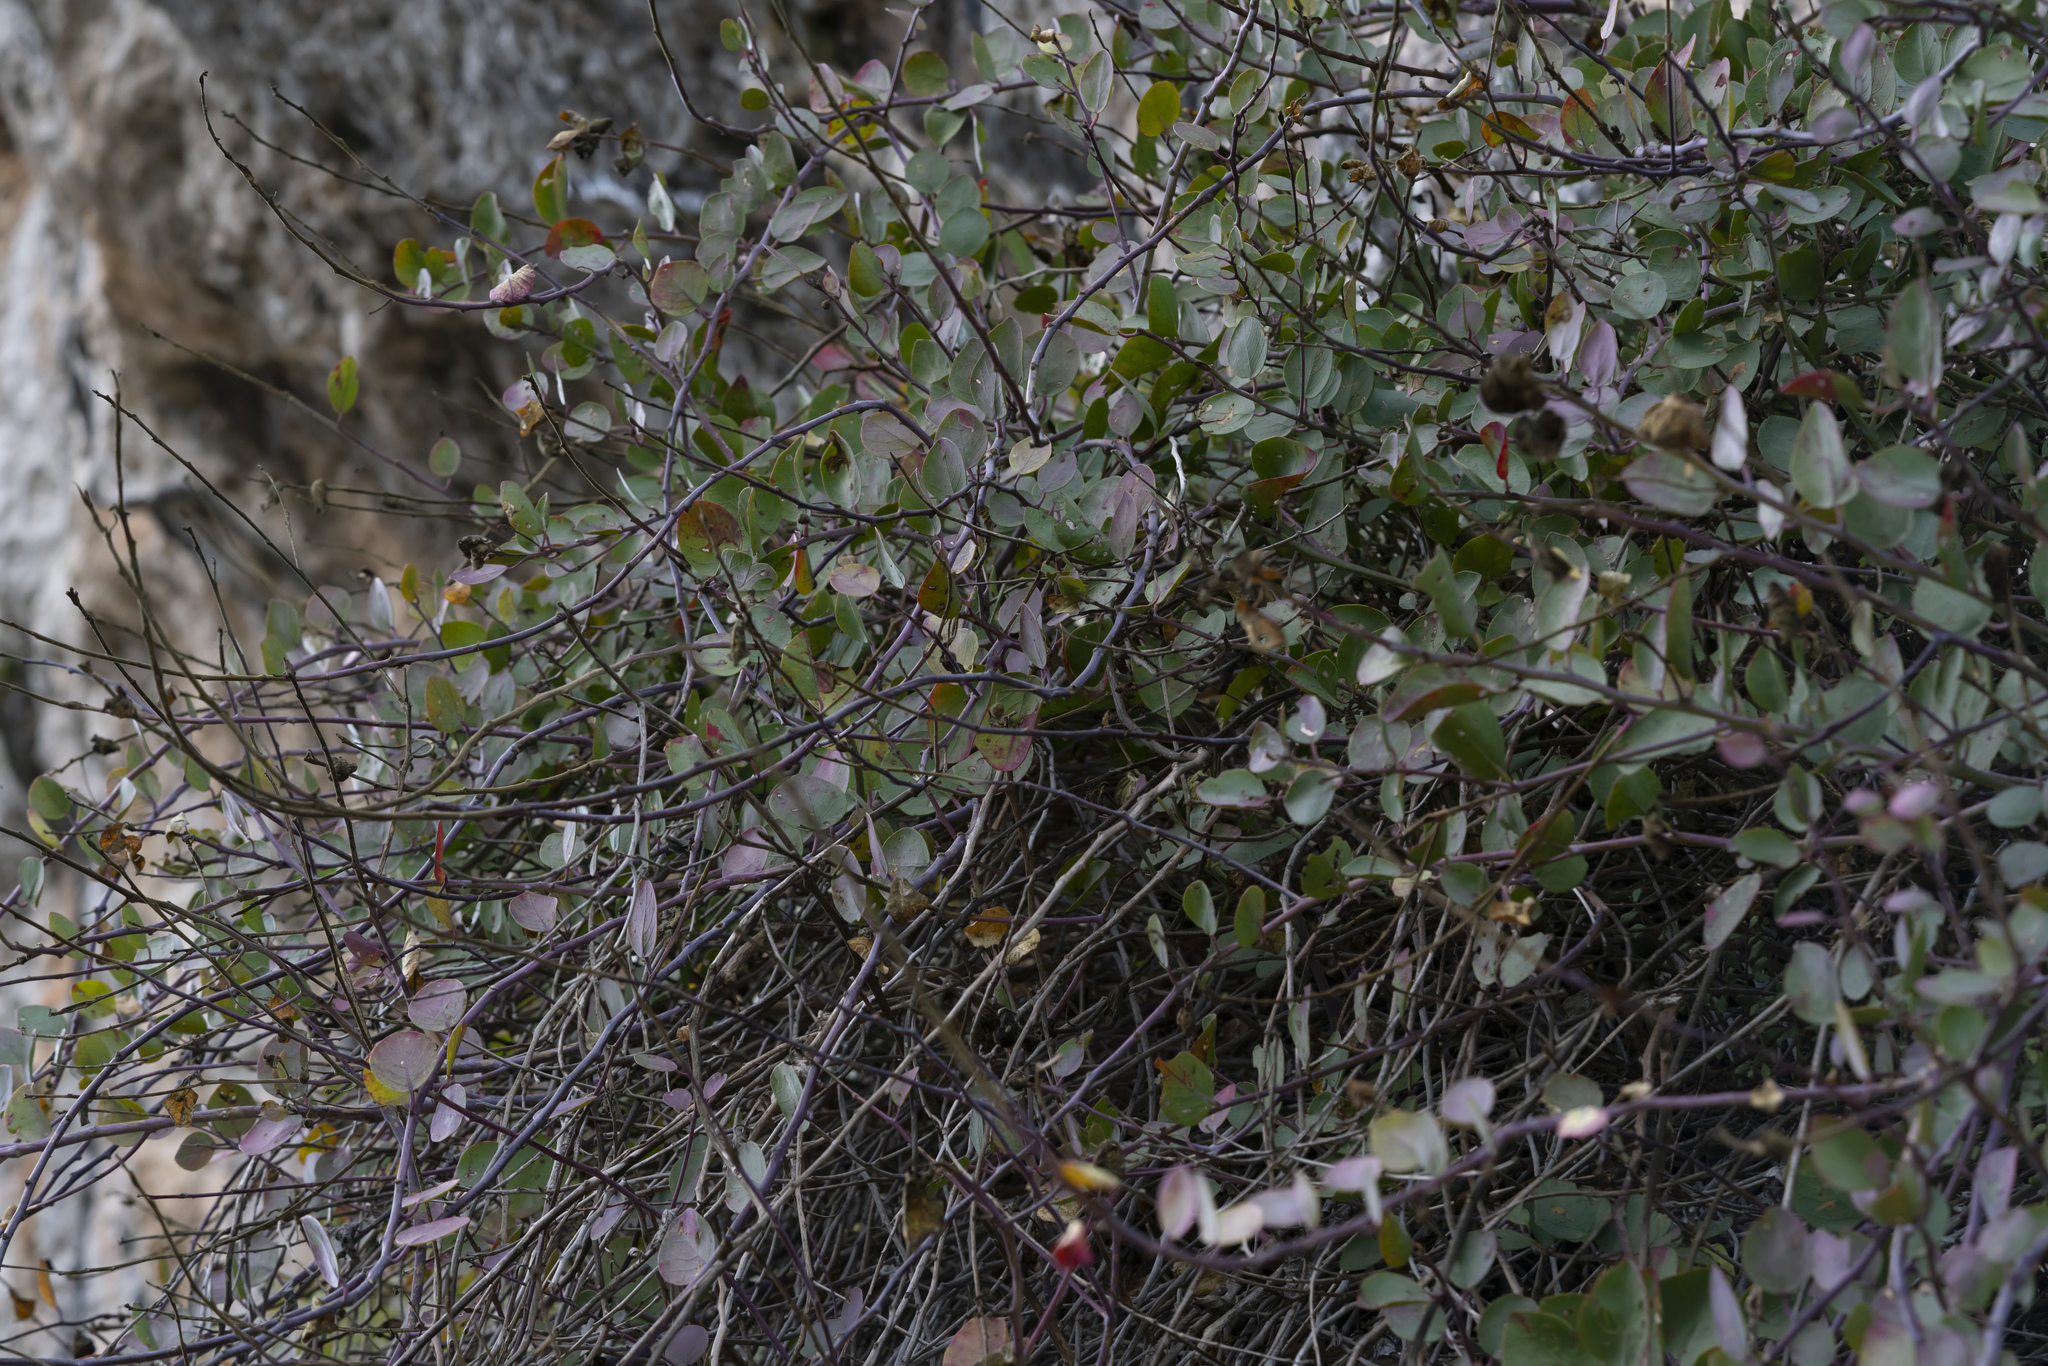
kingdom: Plantae
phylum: Tracheophyta
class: Magnoliopsida
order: Brassicales
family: Capparaceae
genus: Capparis
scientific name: Capparis spinosa
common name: Caper
